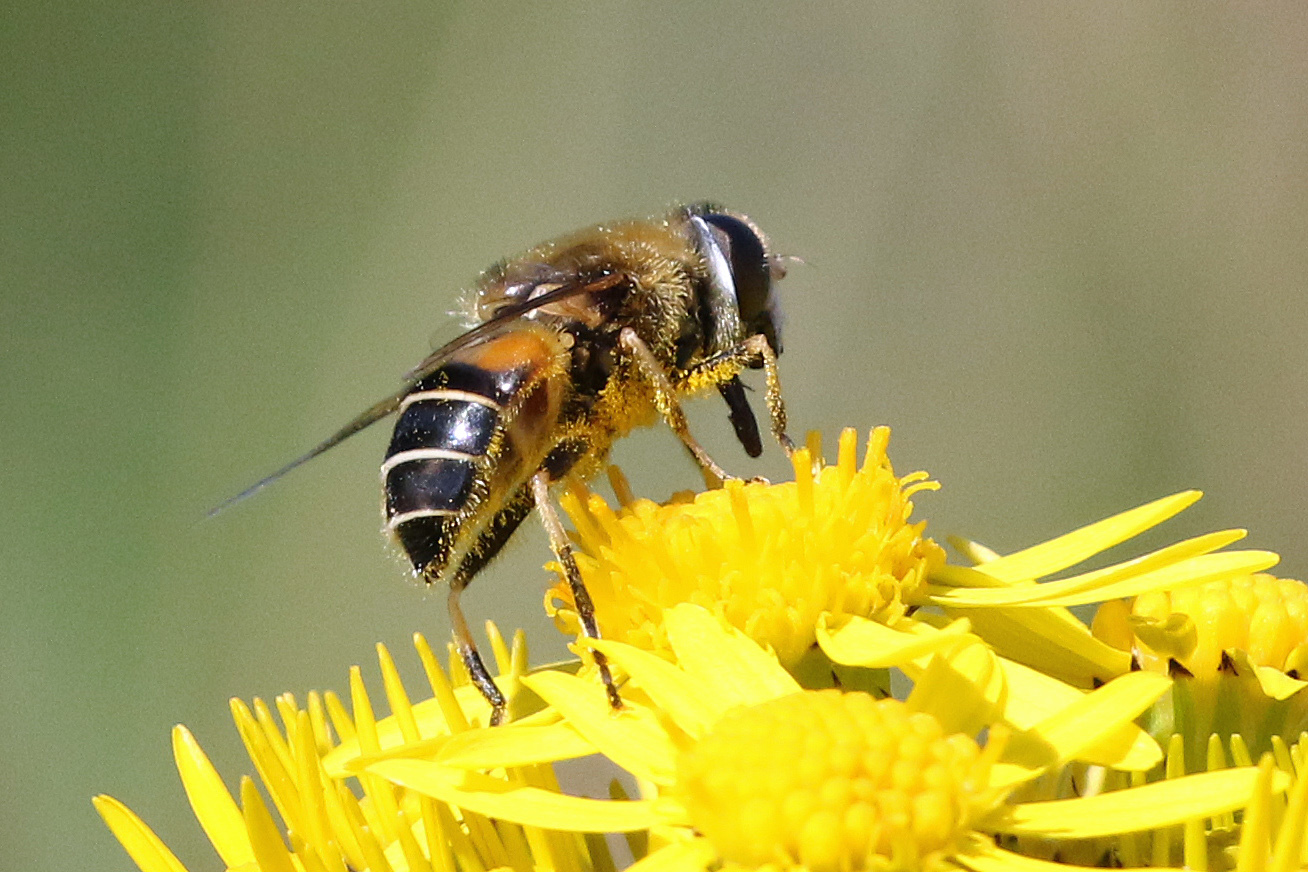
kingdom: Animalia
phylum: Arthropoda
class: Insecta
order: Diptera
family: Syrphidae
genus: Eristalis
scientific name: Eristalis nemorum
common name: Orange-spined drone fly
